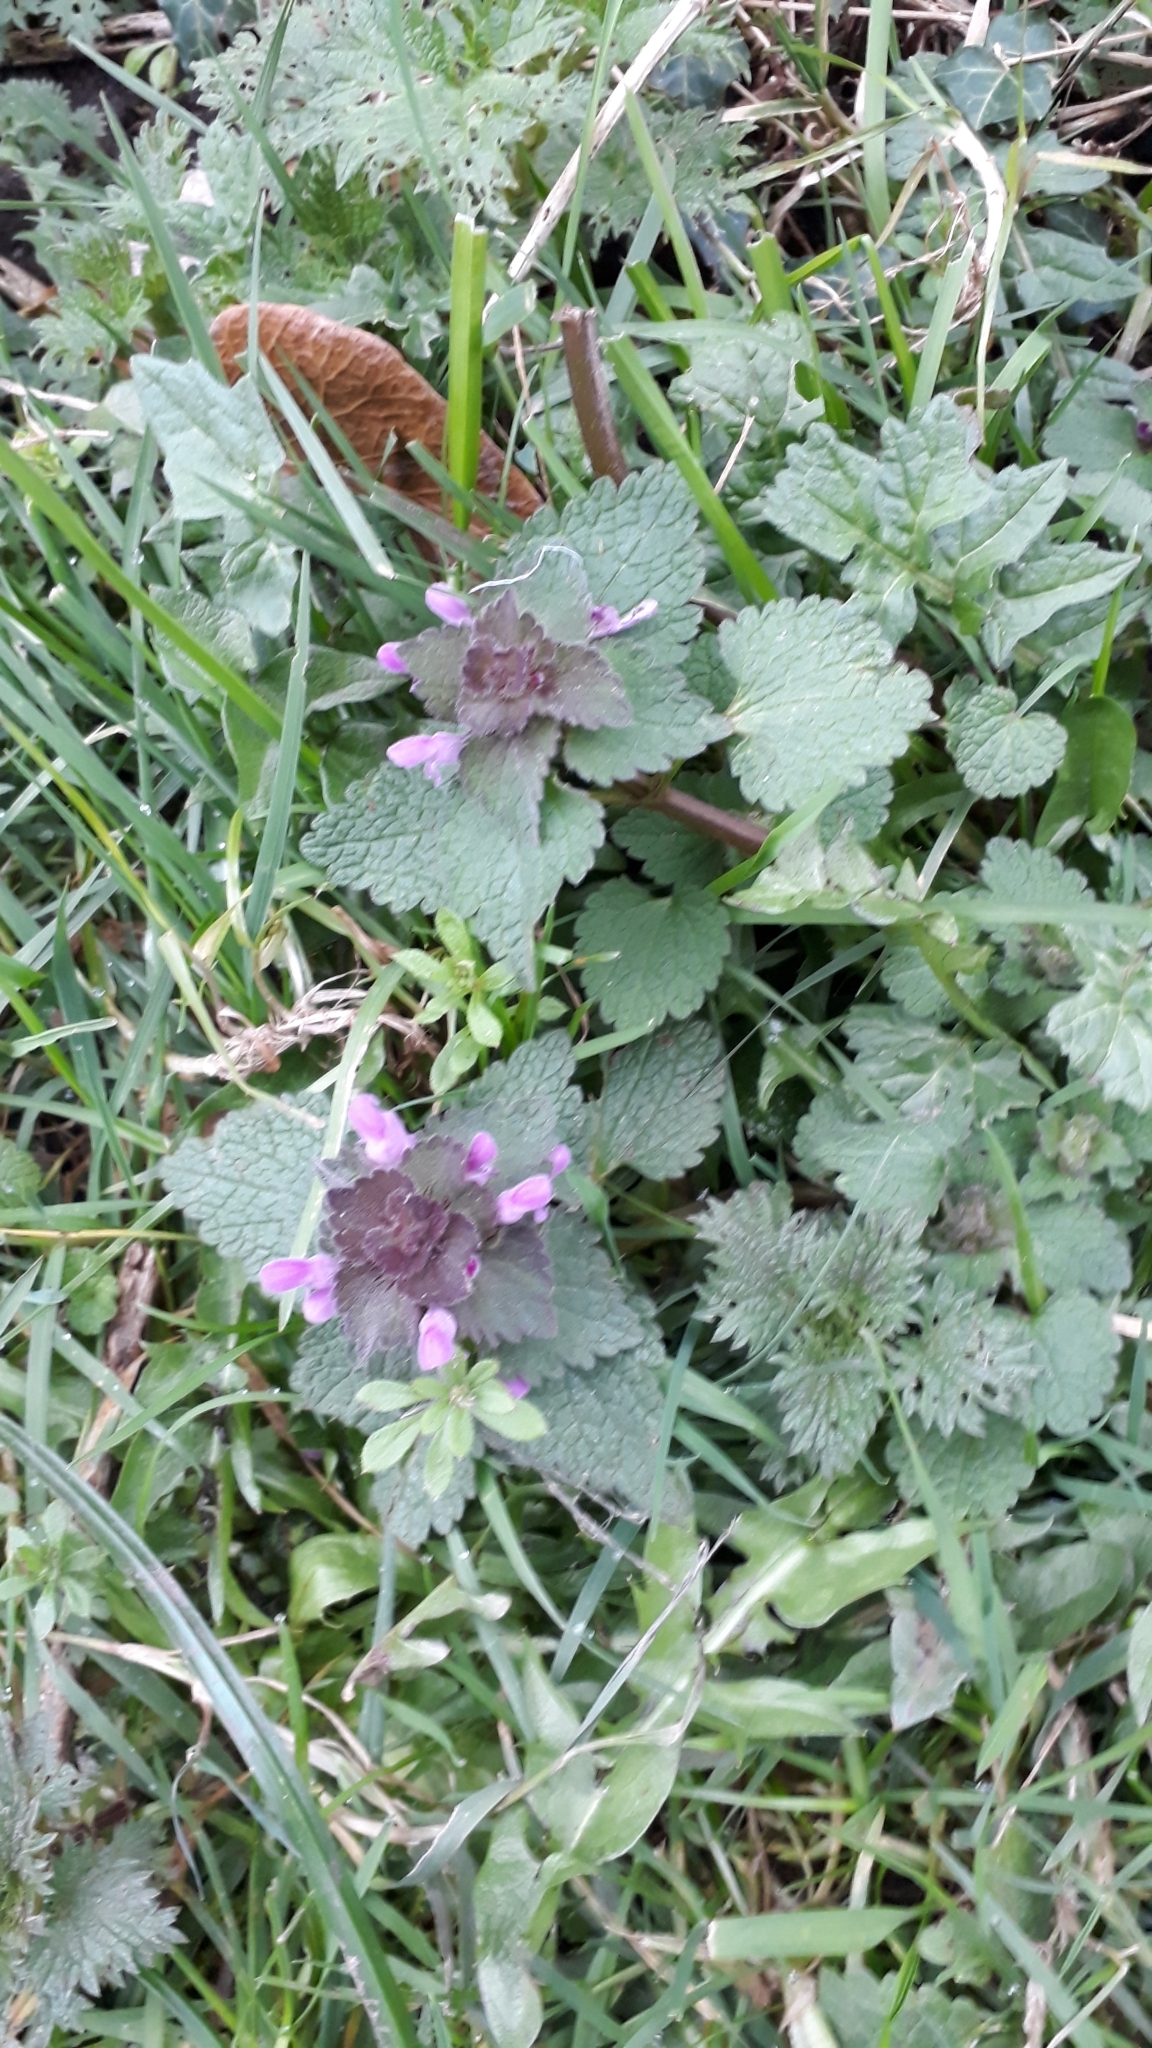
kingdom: Plantae
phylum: Tracheophyta
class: Magnoliopsida
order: Lamiales
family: Lamiaceae
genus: Lamium
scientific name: Lamium purpureum
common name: Red dead-nettle
